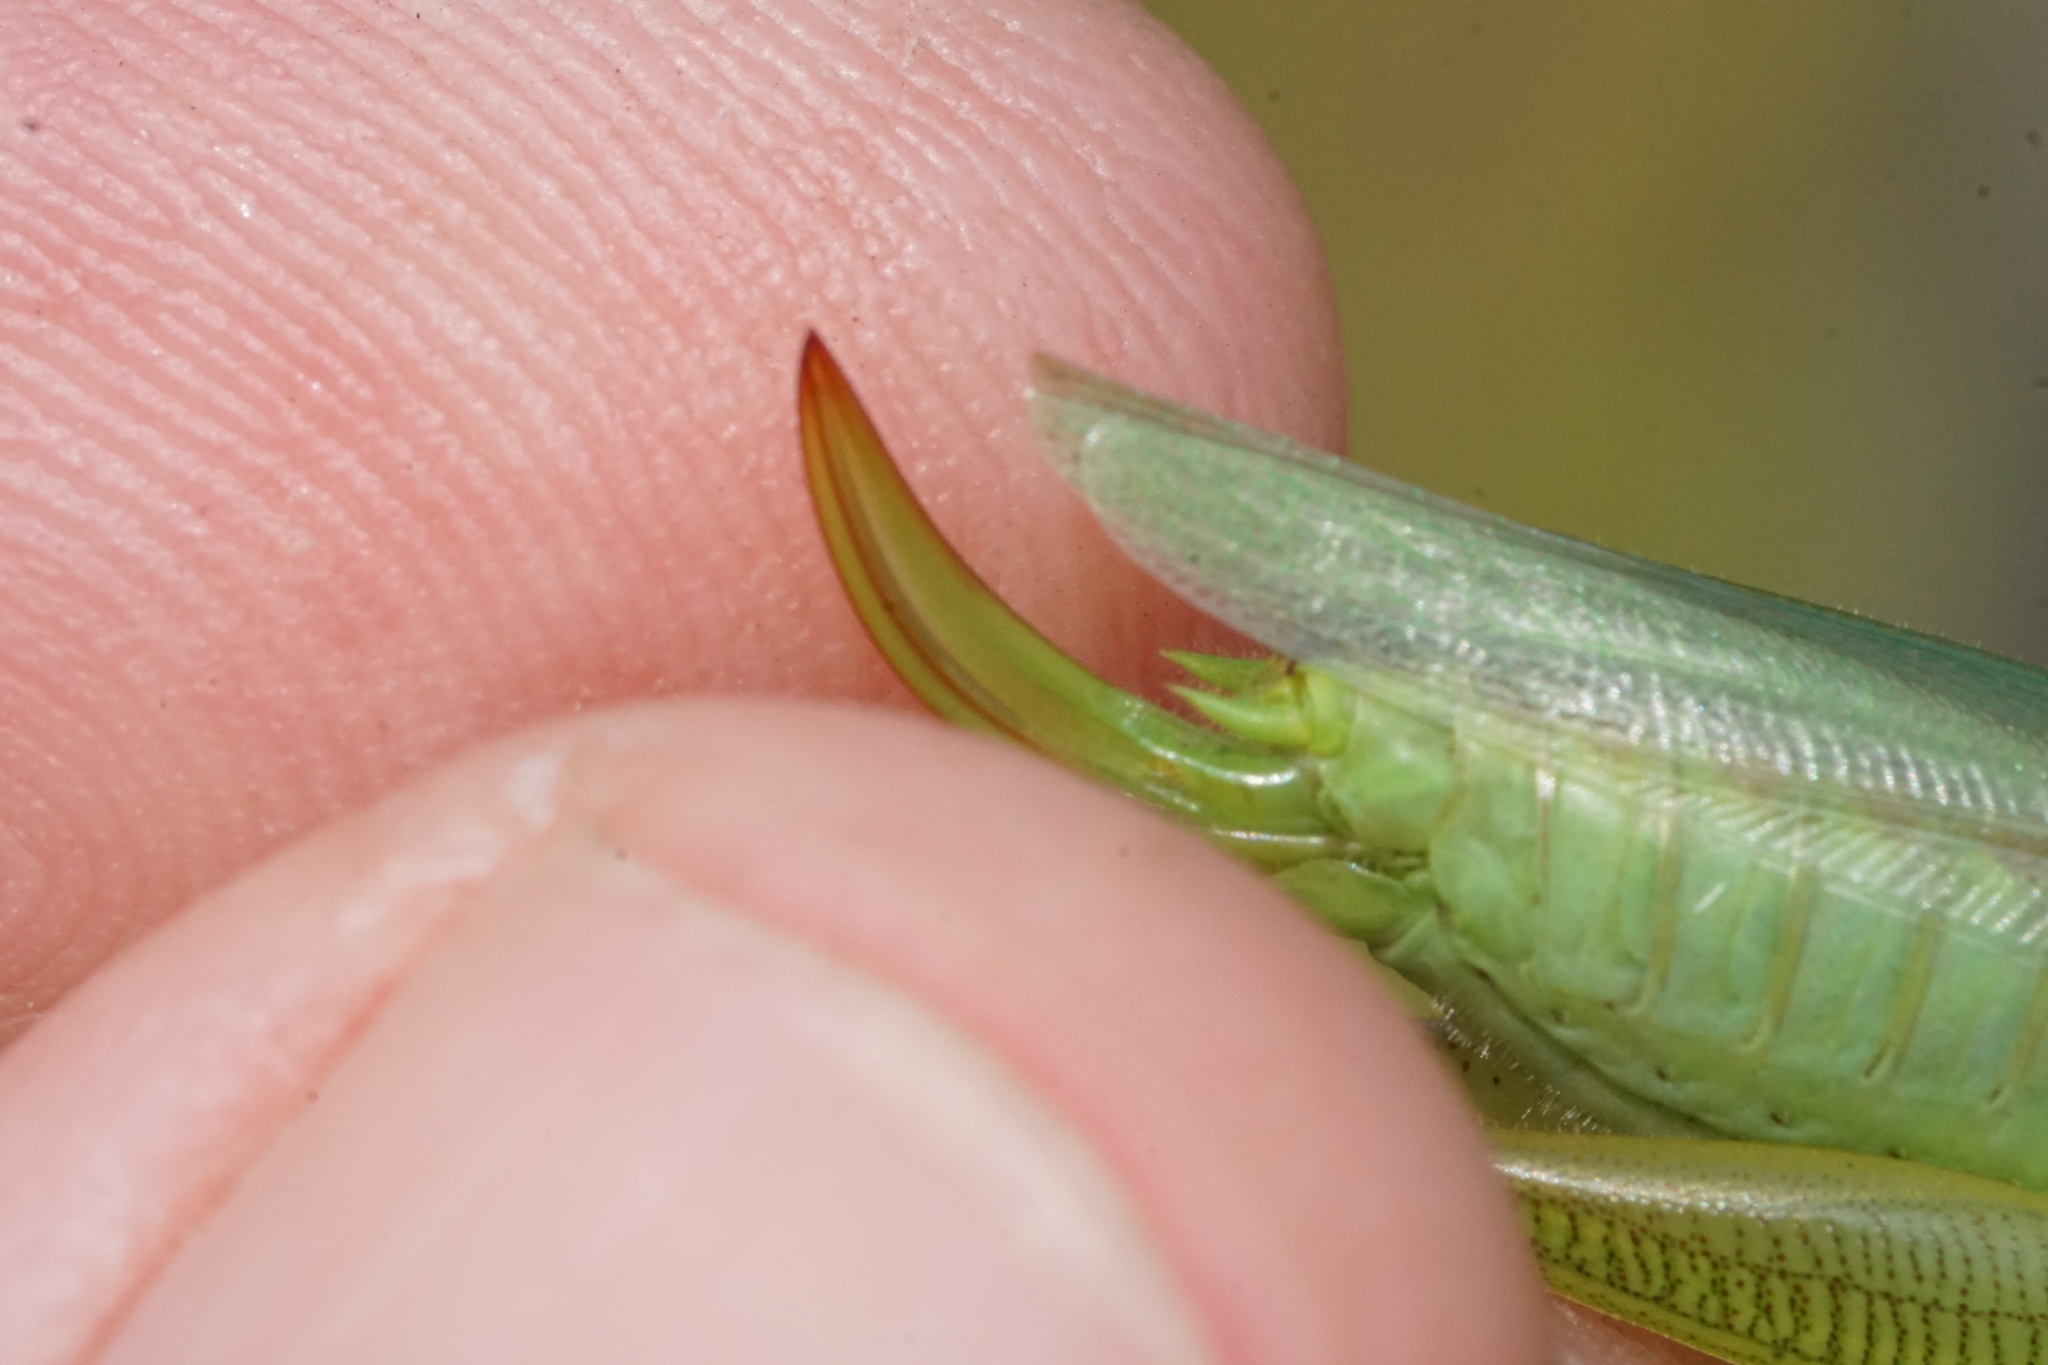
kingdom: Animalia
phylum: Arthropoda
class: Insecta
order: Orthoptera
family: Tettigoniidae
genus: Orchelimum
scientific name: Orchelimum vulgare
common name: Common meadow katydid
